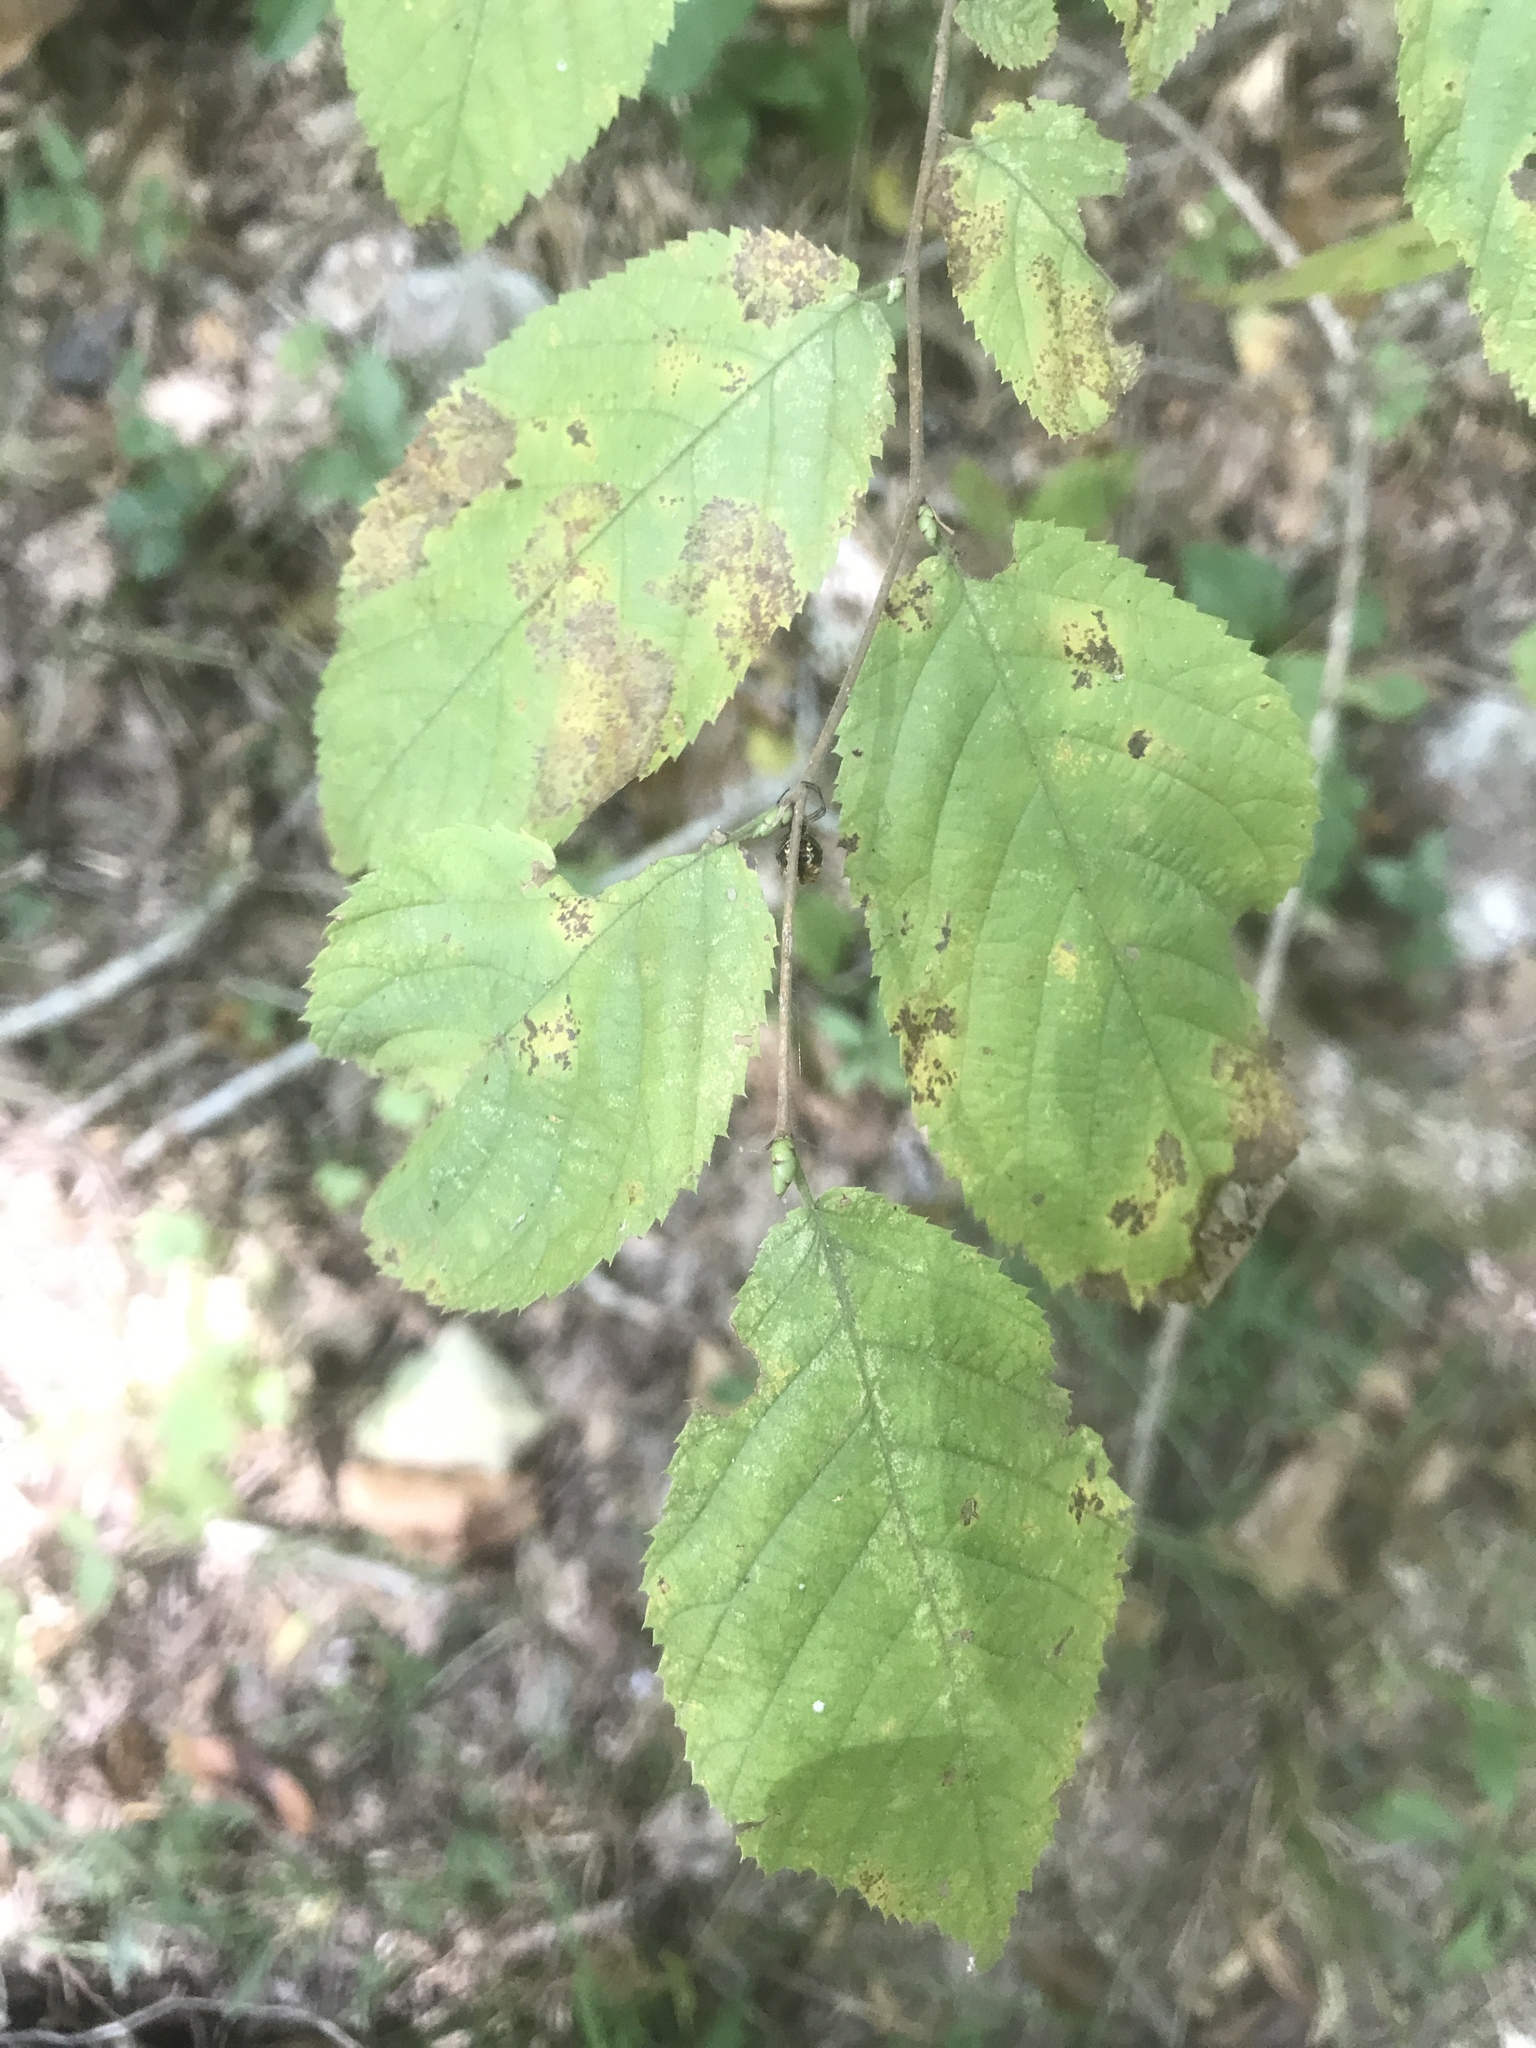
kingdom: Plantae
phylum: Tracheophyta
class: Magnoliopsida
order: Fagales
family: Betulaceae
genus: Ostrya
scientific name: Ostrya virginiana
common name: Ironwood
